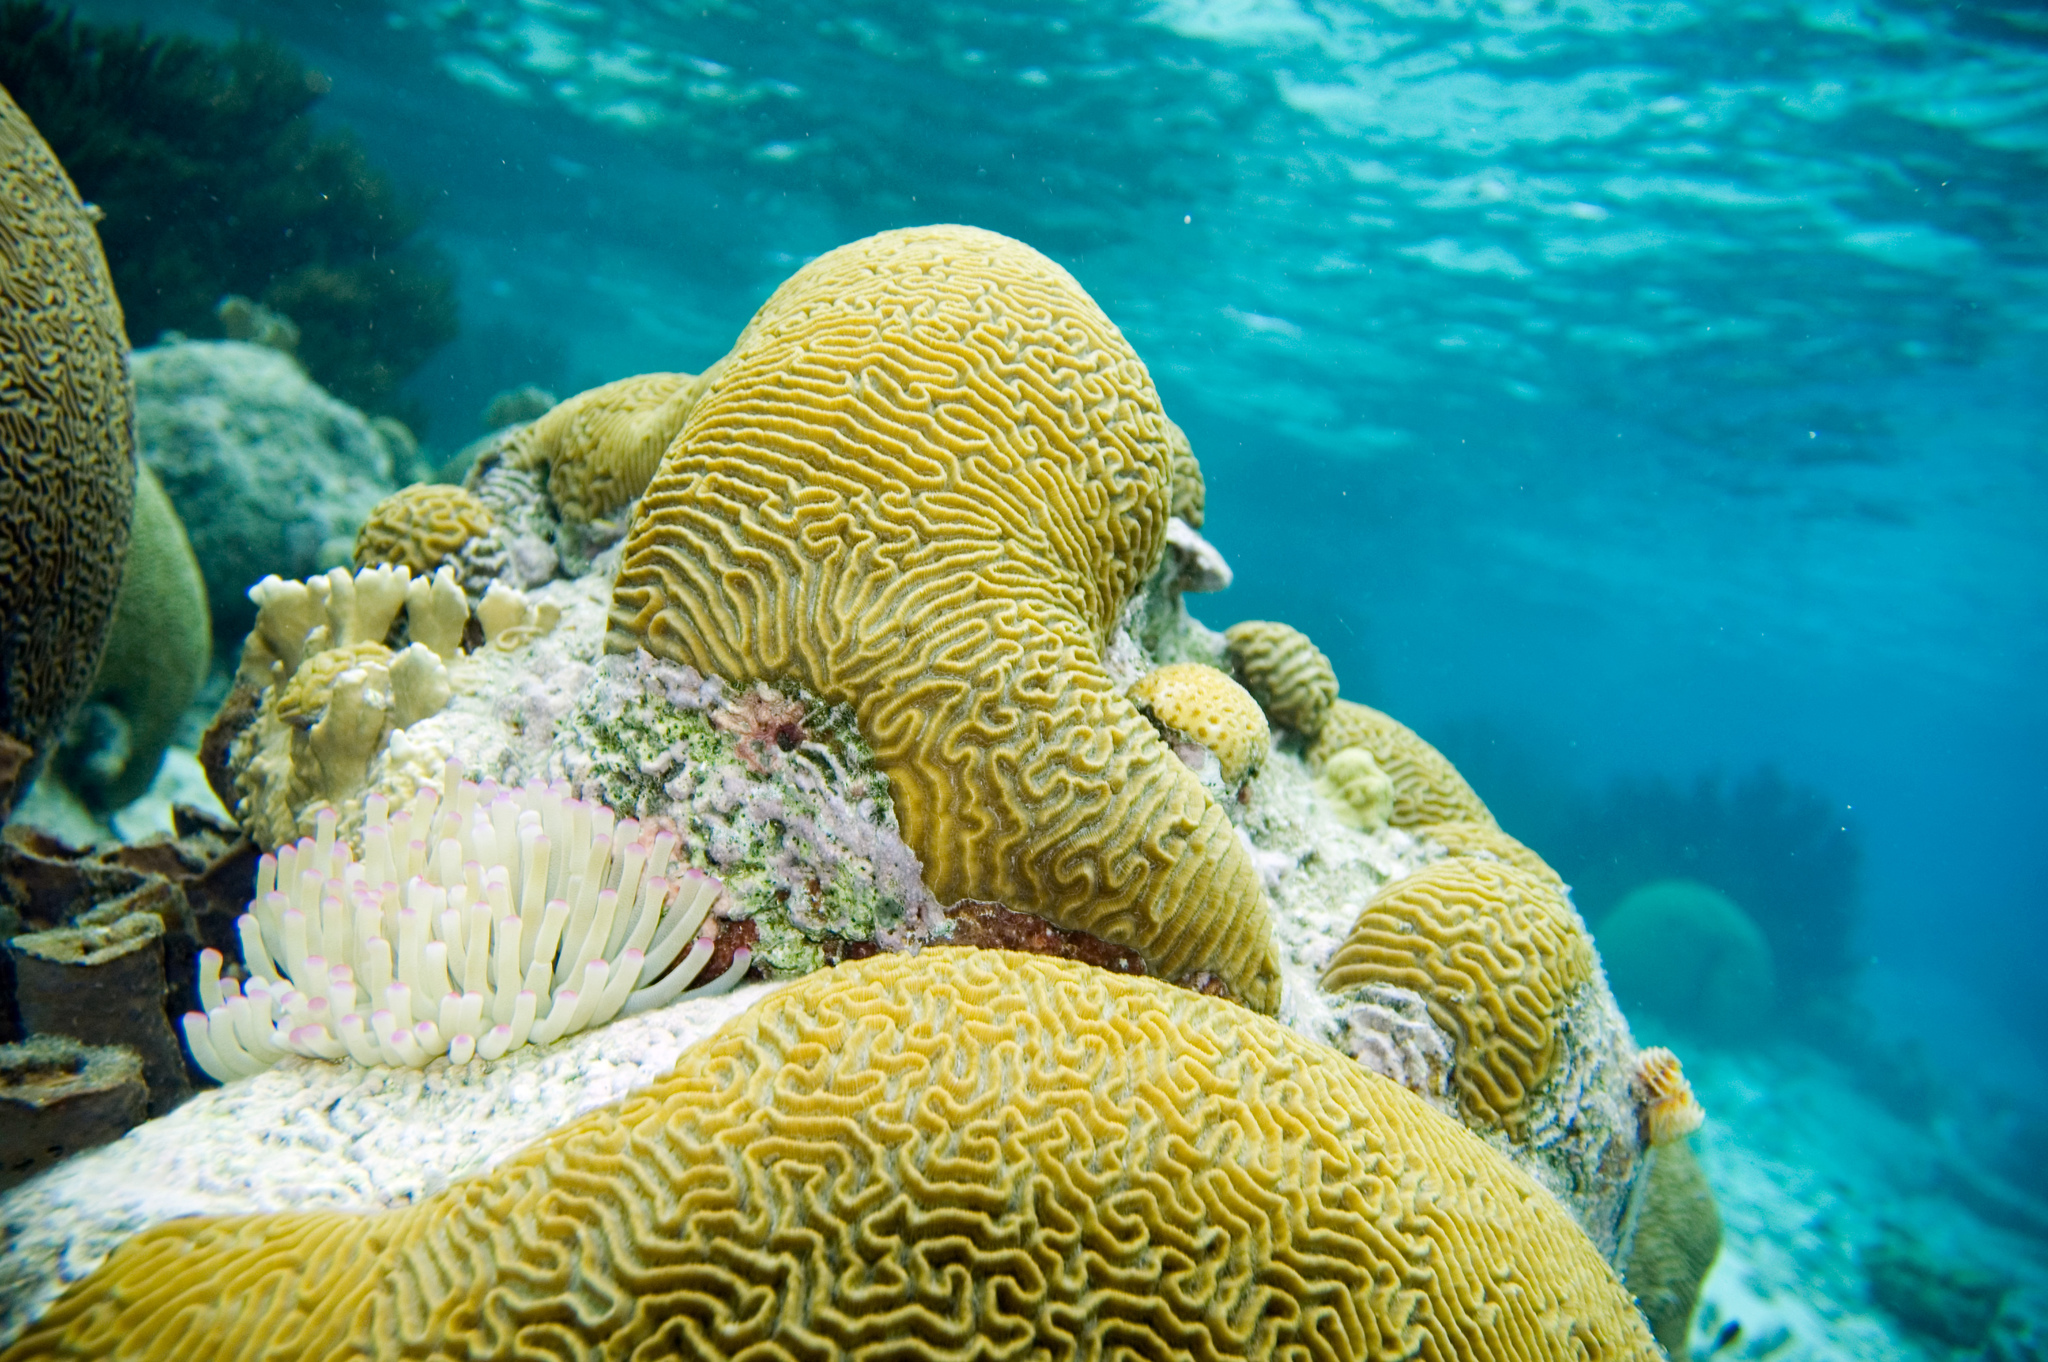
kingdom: Animalia
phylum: Cnidaria
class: Anthozoa
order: Scleractinia
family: Faviidae
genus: Pseudodiploria
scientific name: Pseudodiploria strigosa
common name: Symmetrical brain coral
